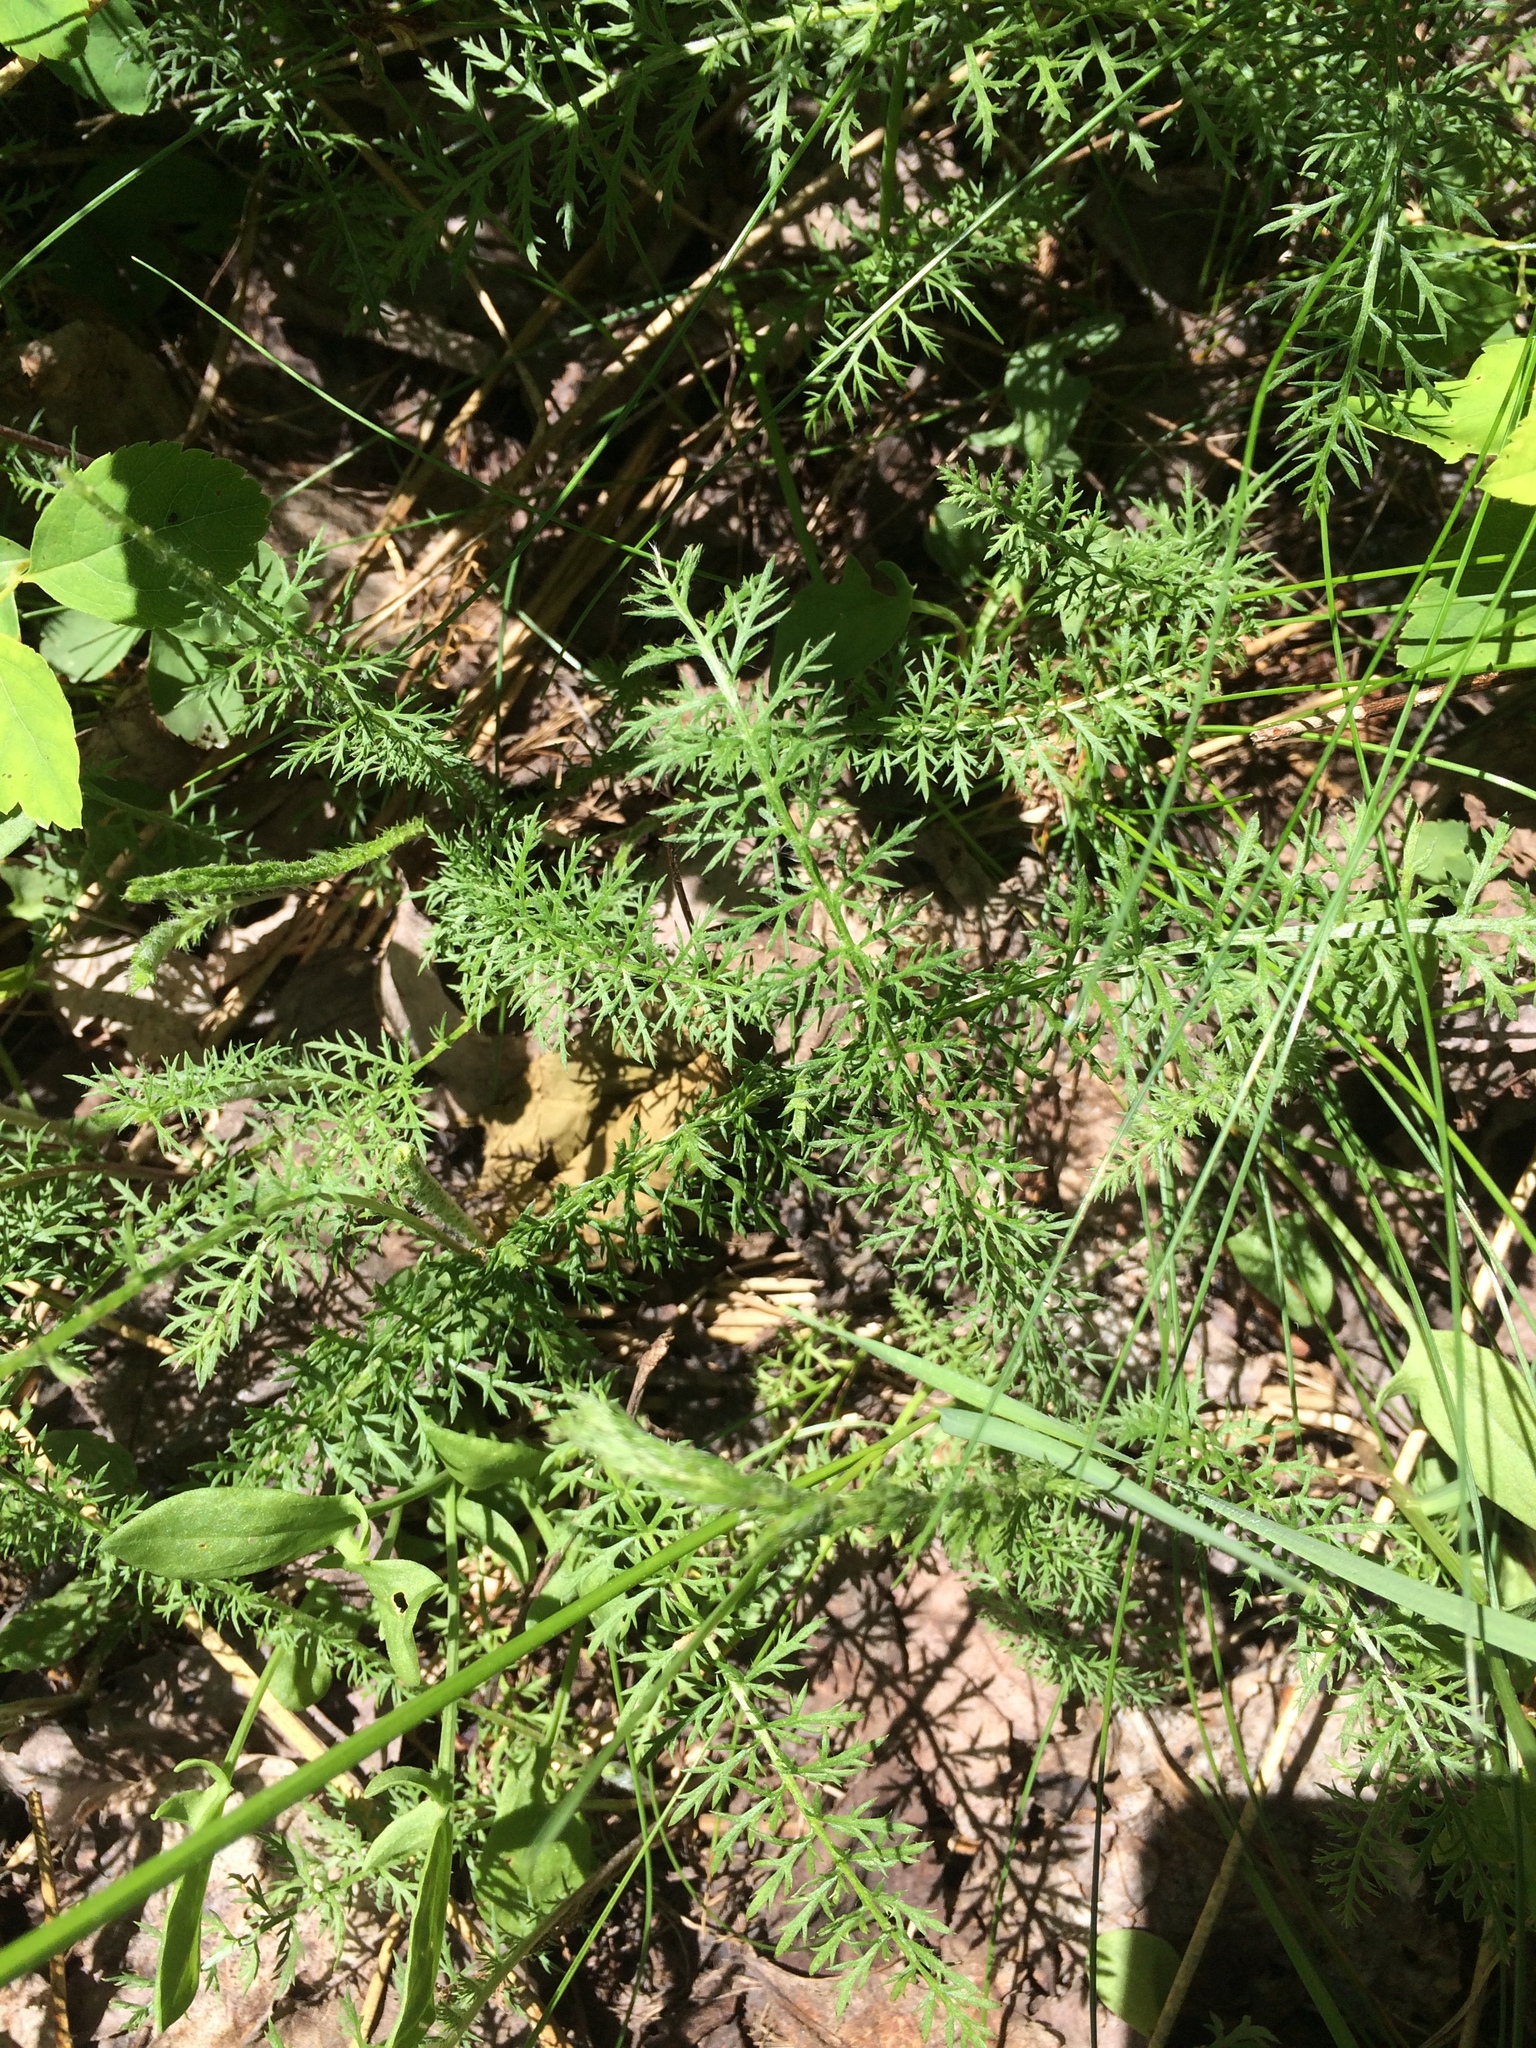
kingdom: Plantae
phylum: Tracheophyta
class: Magnoliopsida
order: Asterales
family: Asteraceae
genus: Achillea
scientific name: Achillea millefolium
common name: Yarrow
